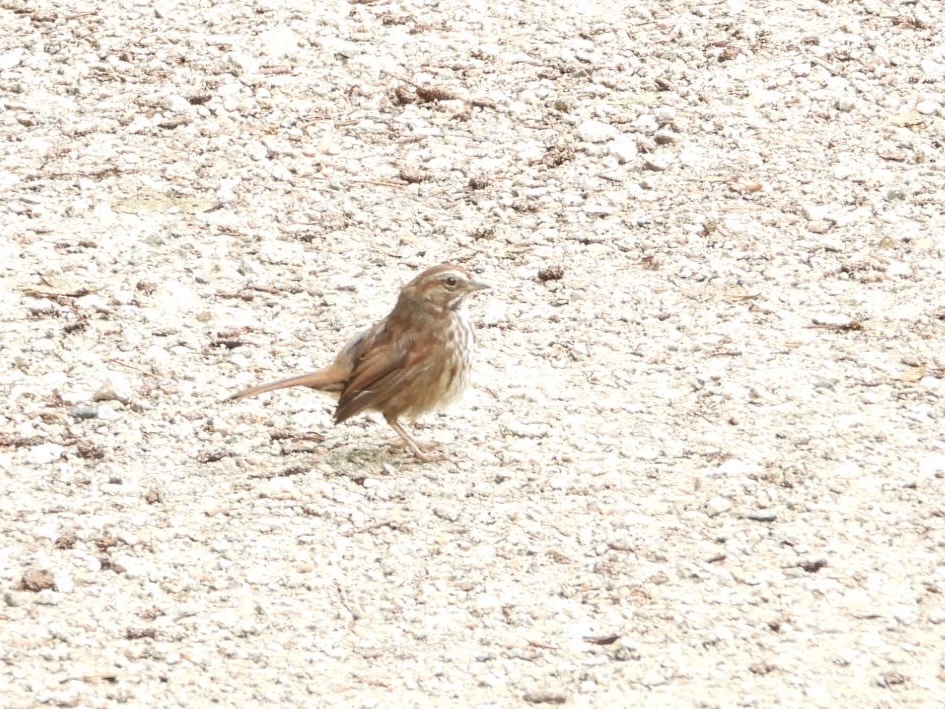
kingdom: Animalia
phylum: Chordata
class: Aves
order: Passeriformes
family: Passerellidae
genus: Melospiza
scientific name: Melospiza melodia
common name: Song sparrow
